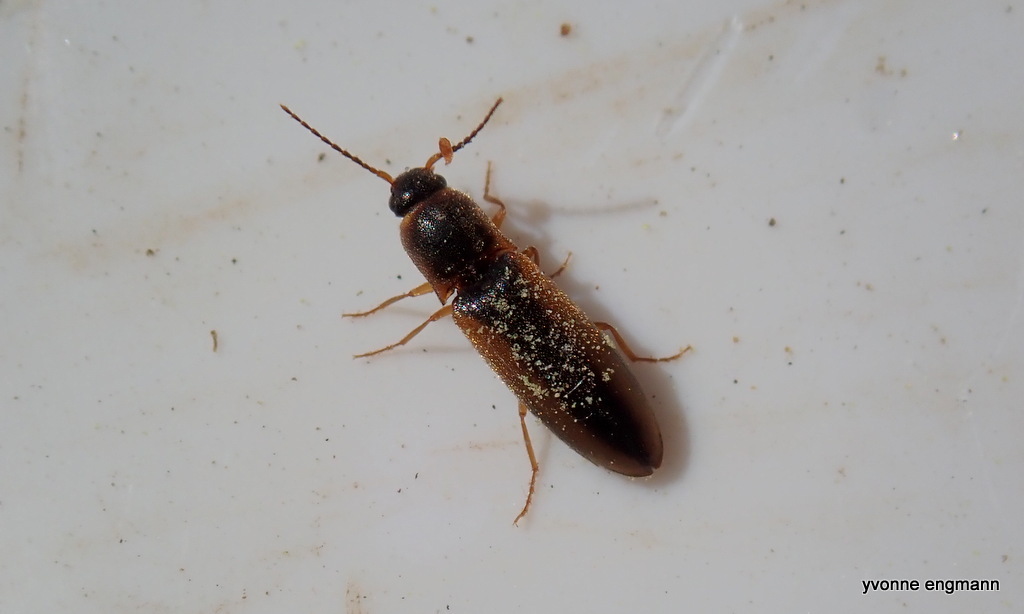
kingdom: Animalia
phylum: Arthropoda
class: Insecta
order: Coleoptera
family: Elateridae
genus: Dalopius
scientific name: Dalopius marginatus
